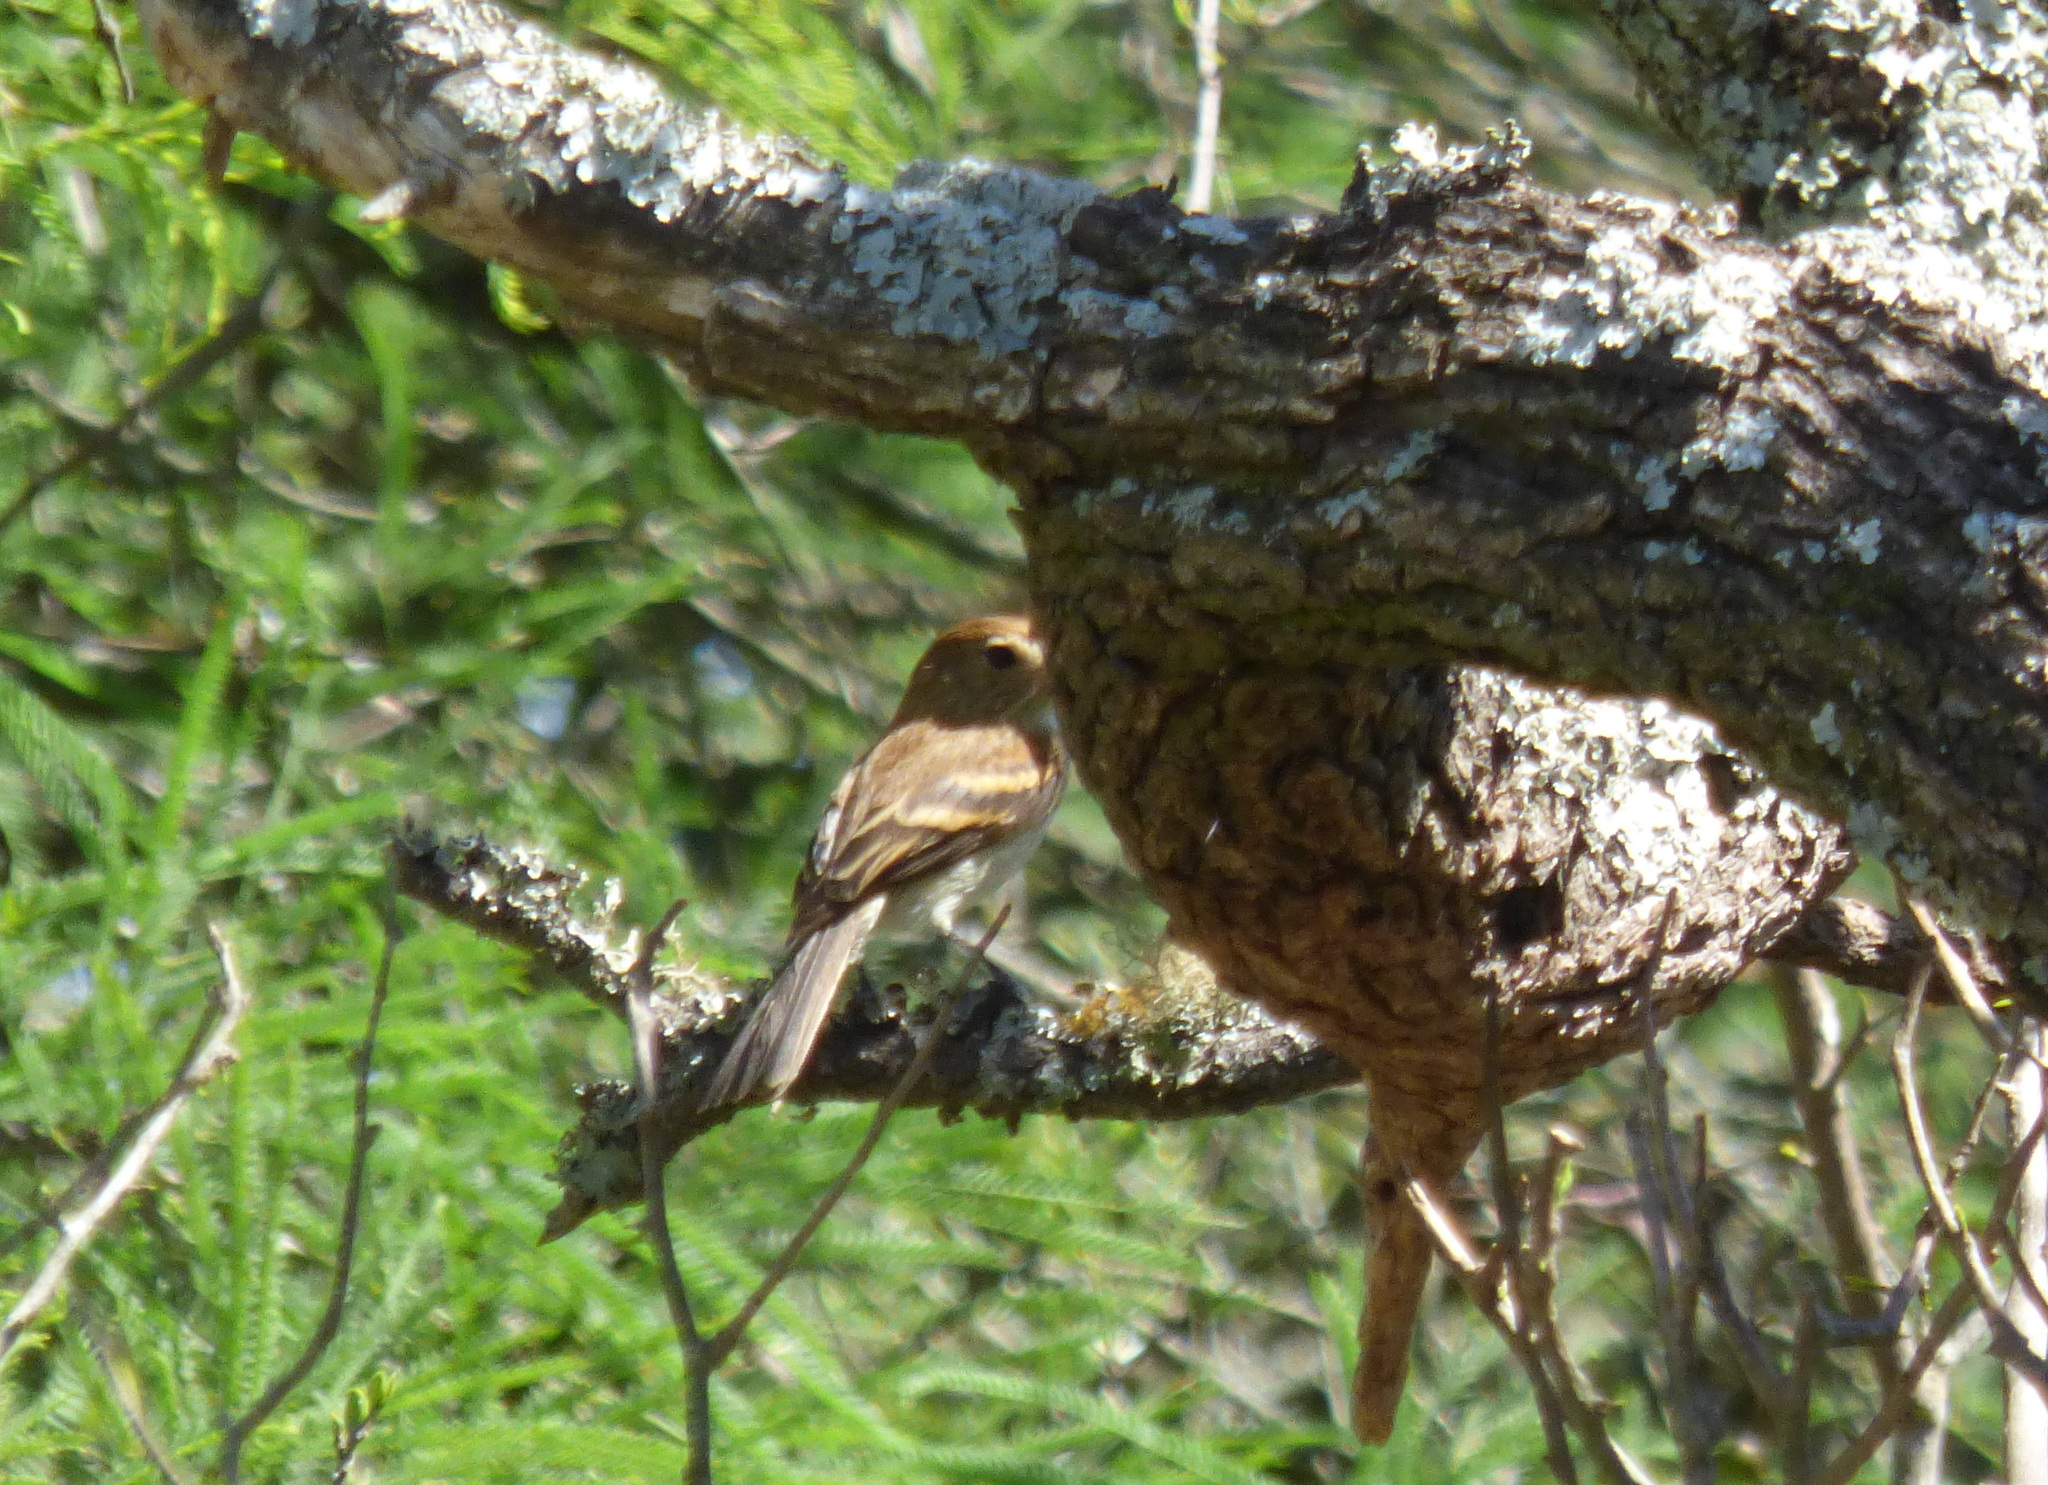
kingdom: Animalia
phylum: Chordata
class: Aves
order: Passeriformes
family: Tyrannidae
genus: Myiophobus
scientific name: Myiophobus fasciatus
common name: Bran-colored flycatcher
